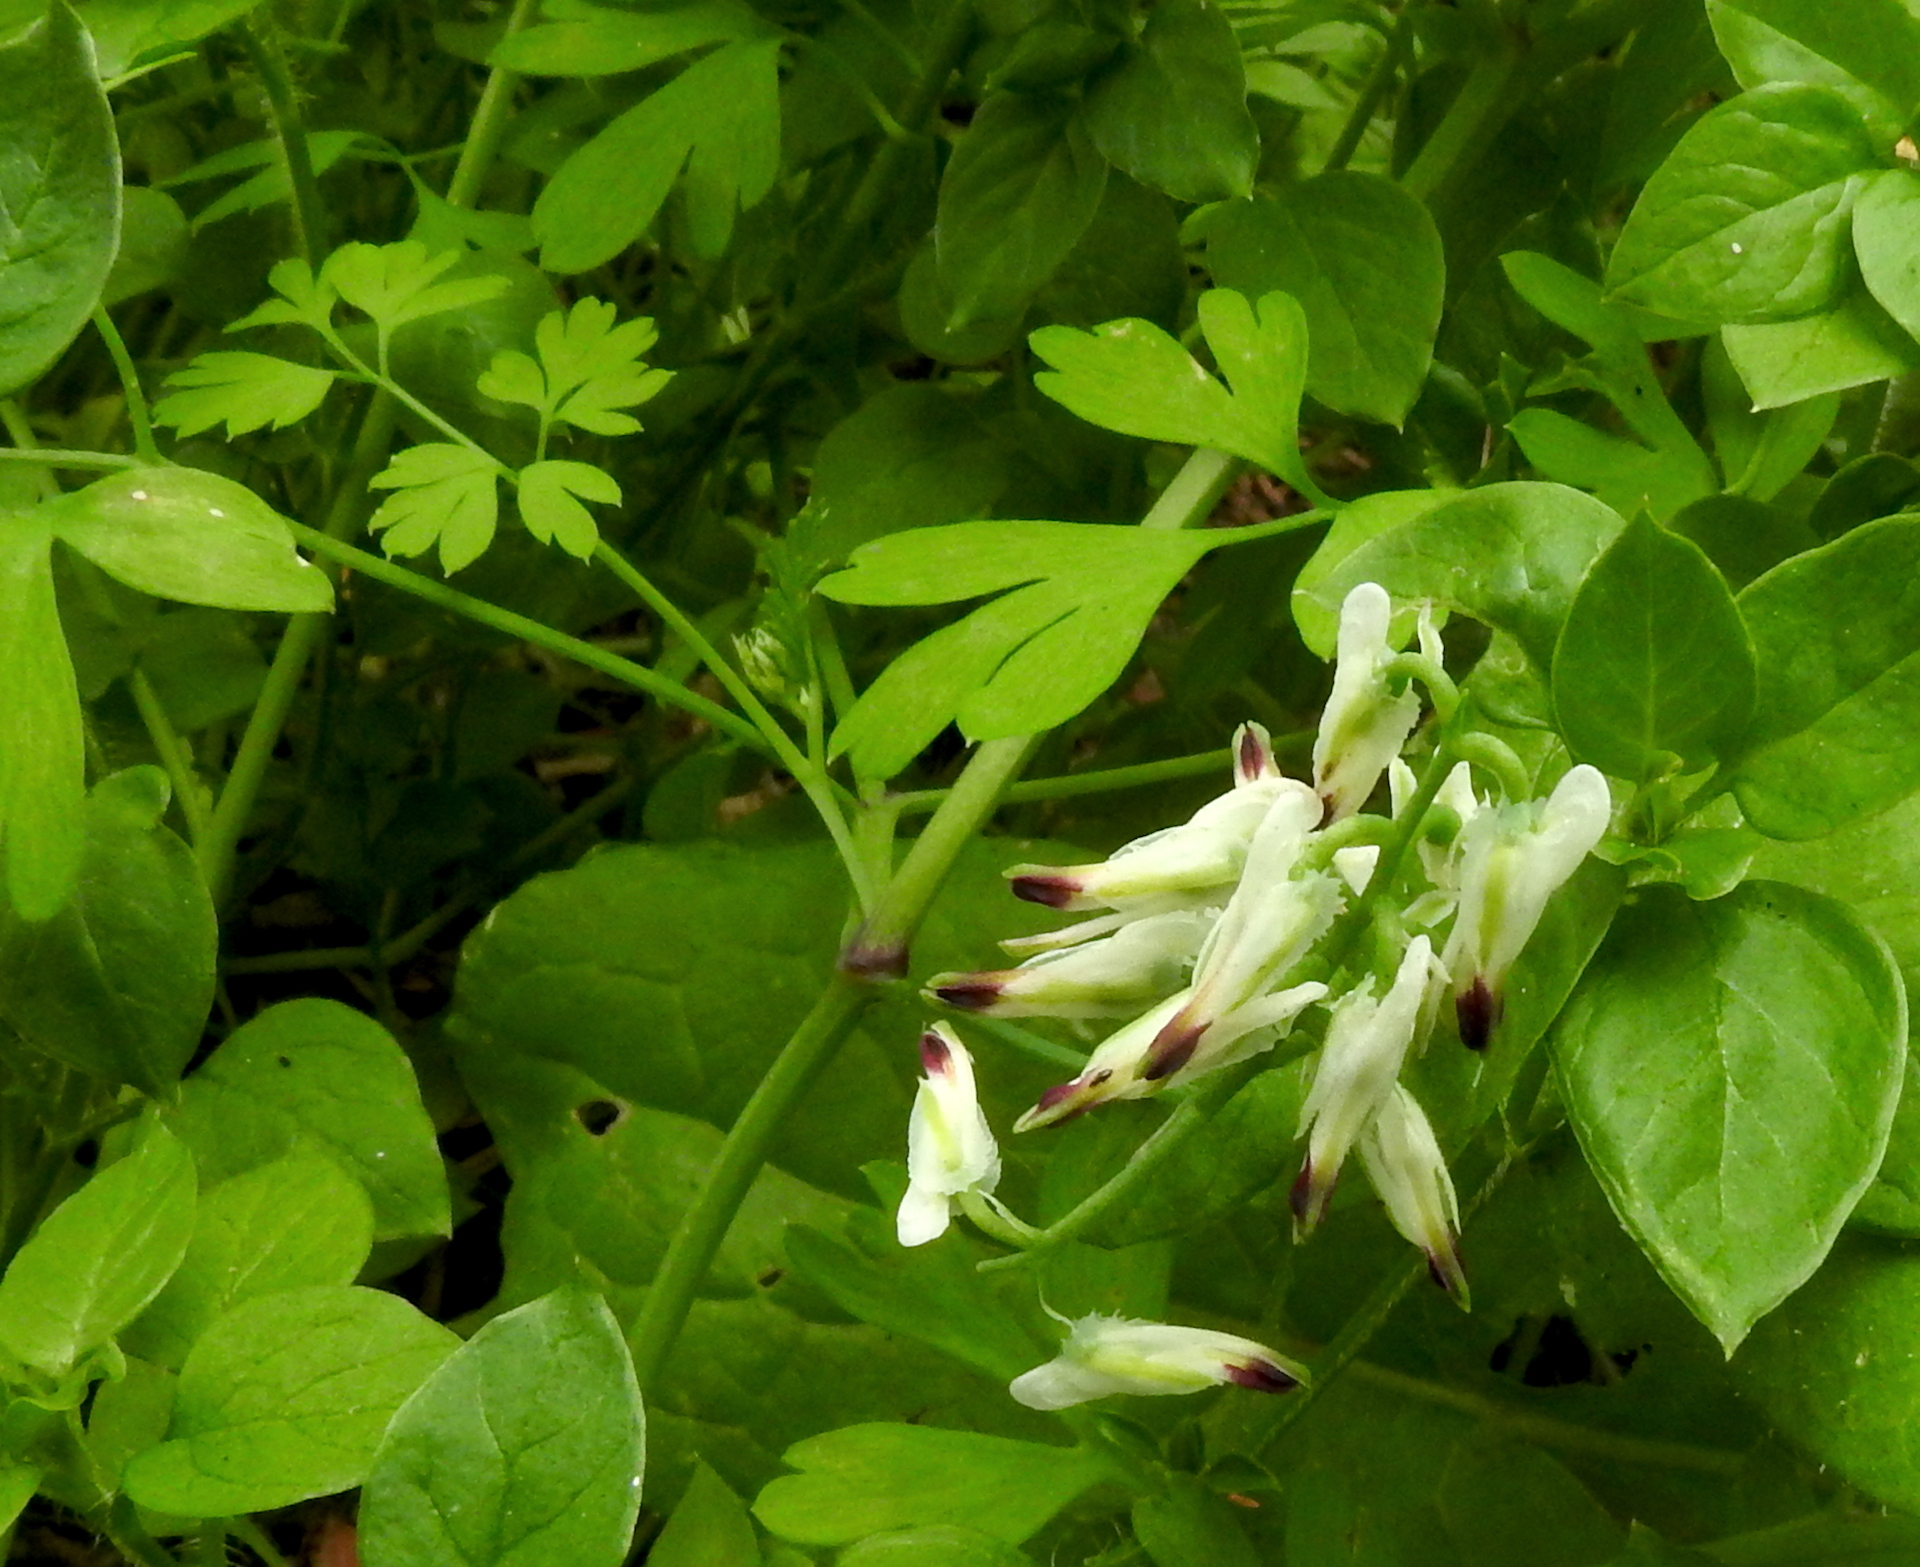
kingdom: Plantae
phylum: Tracheophyta
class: Magnoliopsida
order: Ranunculales
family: Papaveraceae
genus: Fumaria
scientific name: Fumaria capreolata
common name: White ramping-fumitory
